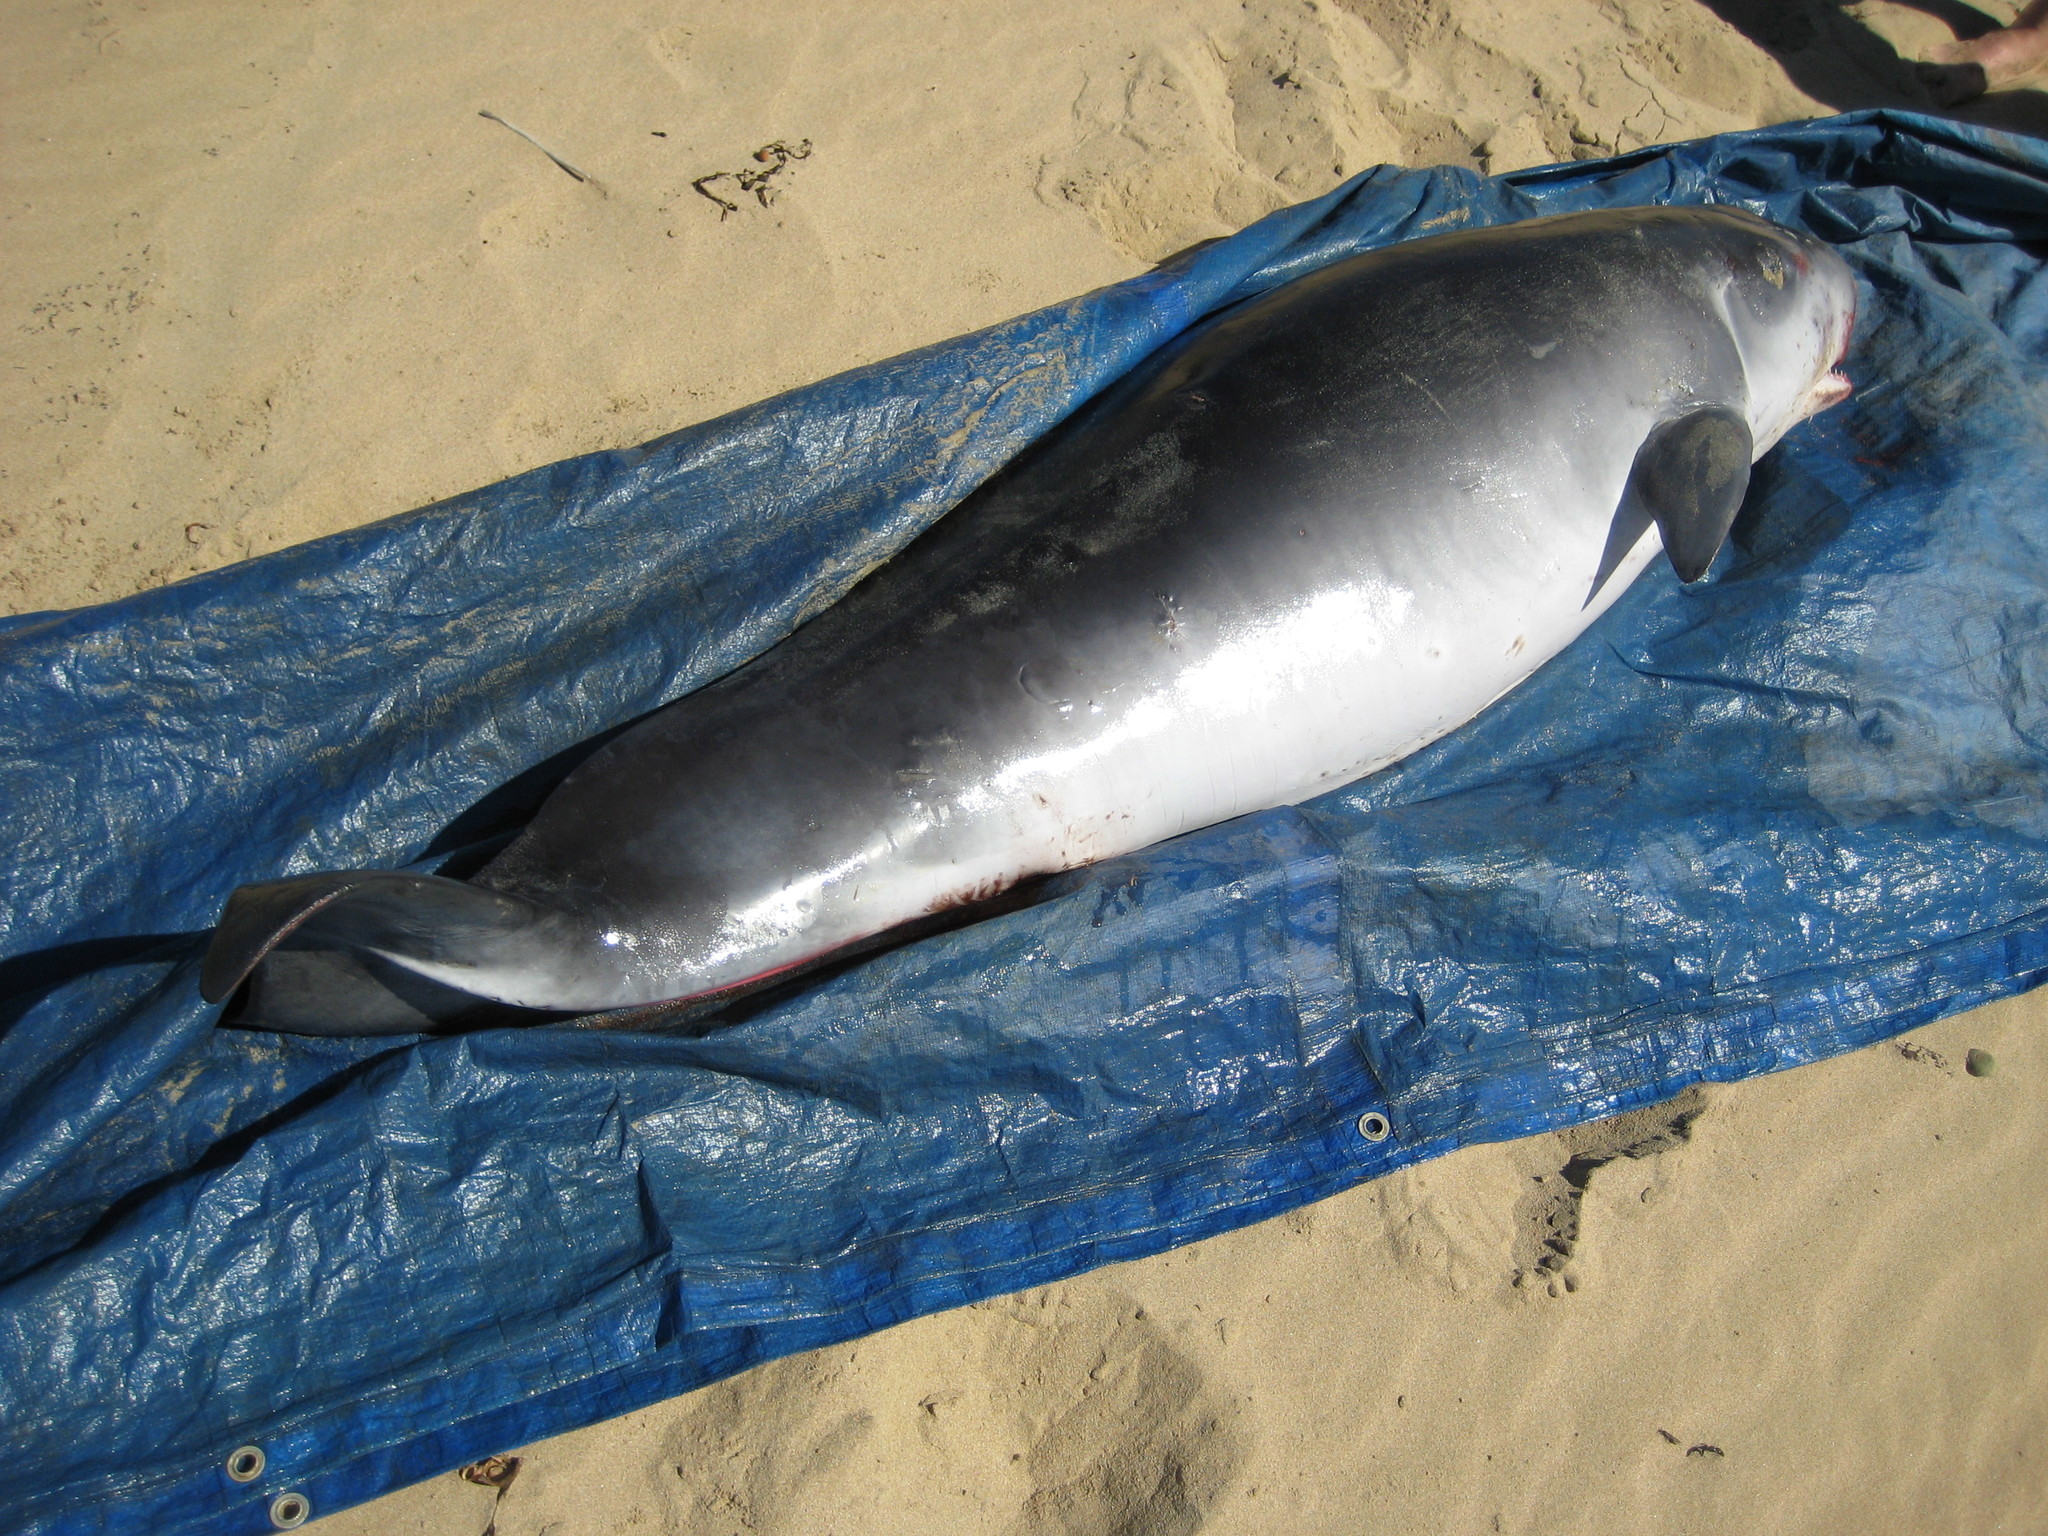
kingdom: Animalia
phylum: Chordata
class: Mammalia
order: Cetacea
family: Kogiidae
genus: Kogia
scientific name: Kogia breviceps
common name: Pygmy sperm whale
